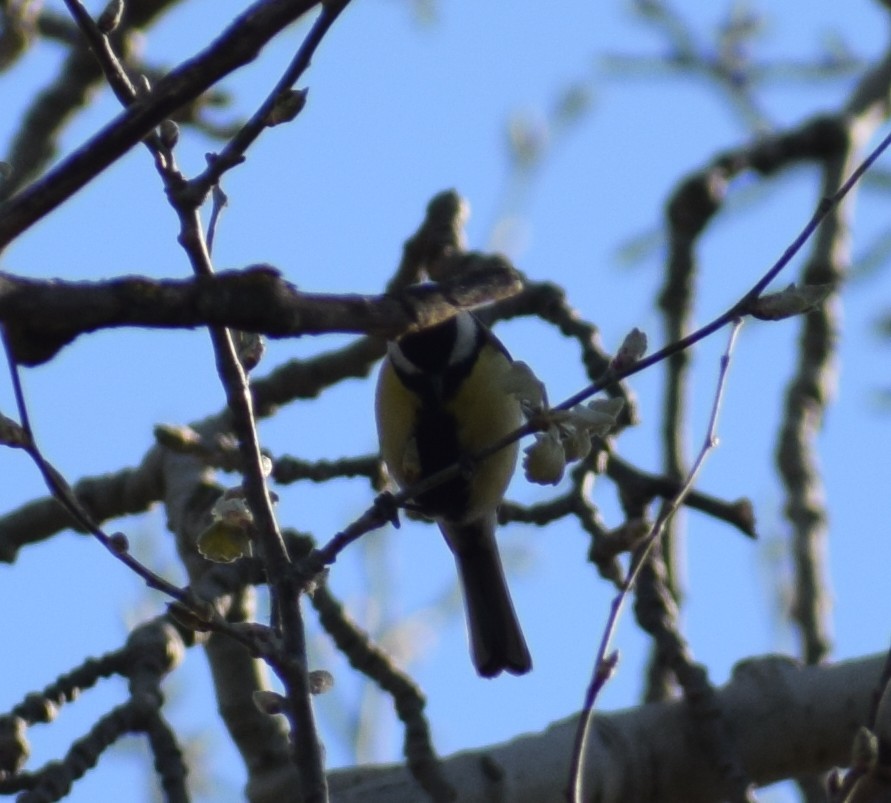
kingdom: Animalia
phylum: Chordata
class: Aves
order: Passeriformes
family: Paridae
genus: Parus
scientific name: Parus major
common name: Great tit
